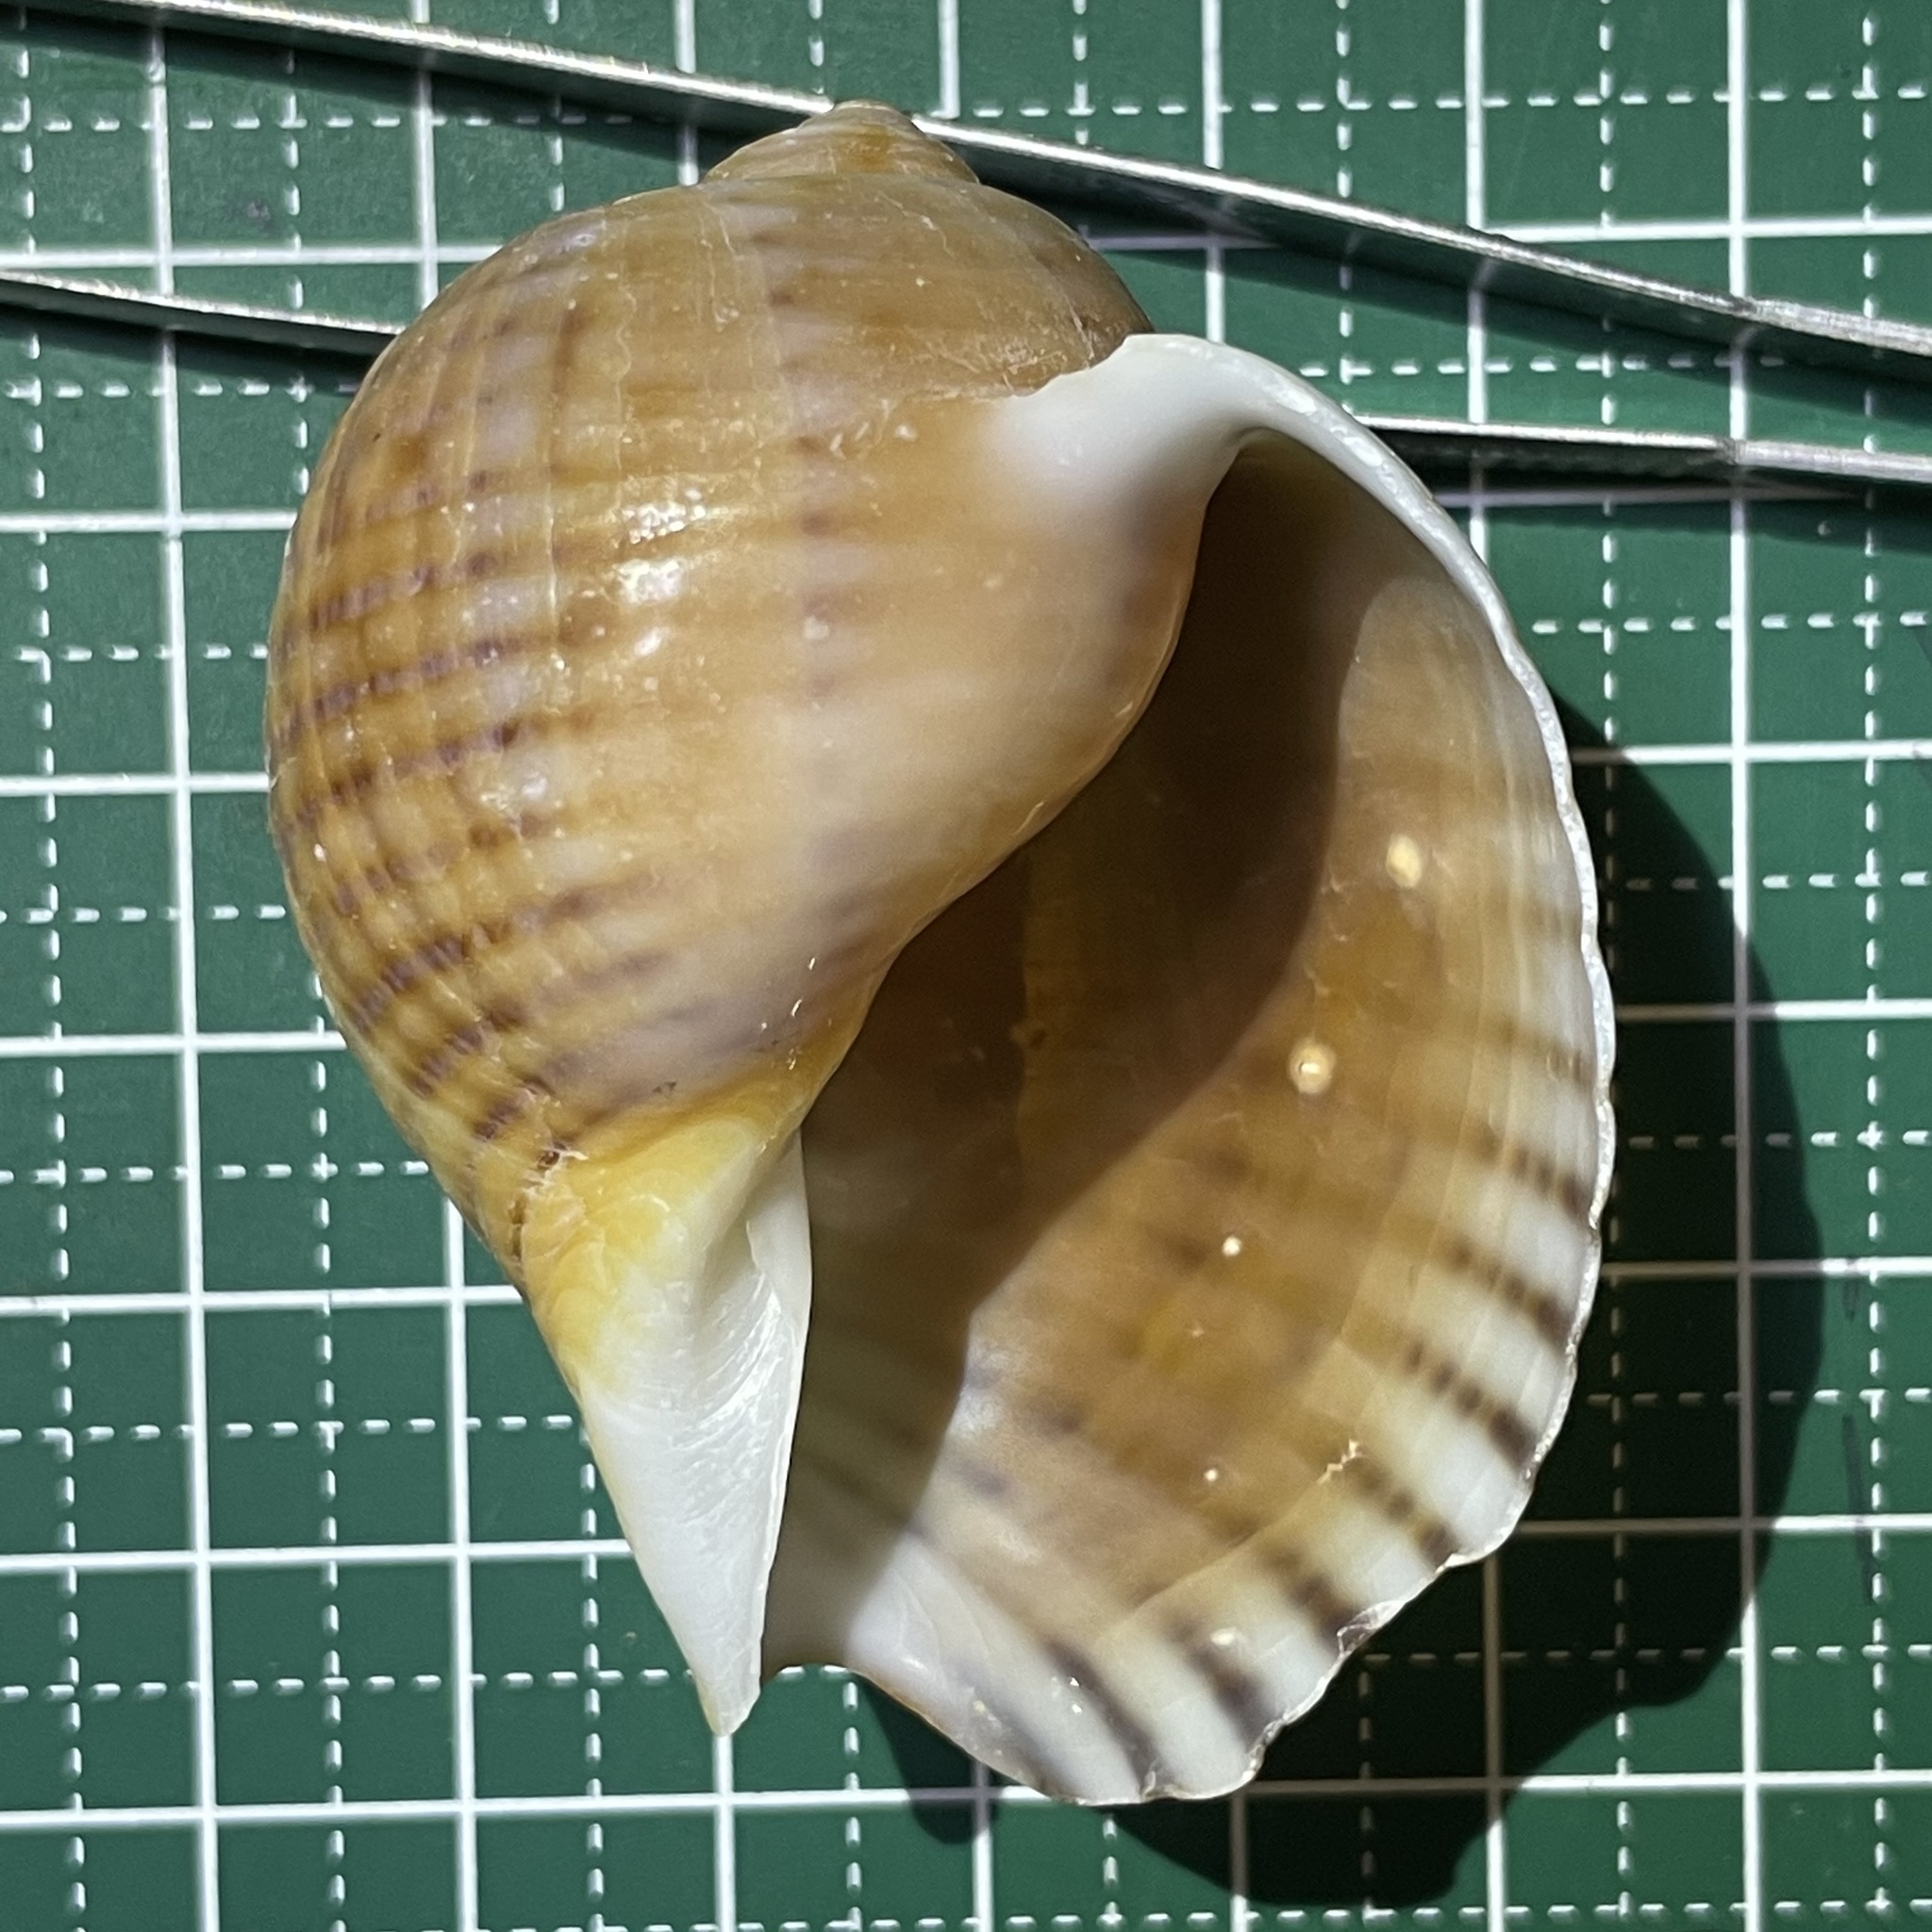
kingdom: Animalia
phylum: Mollusca
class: Gastropoda
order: Littorinimorpha
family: Tonnidae
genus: Tonna
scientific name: Tonna canaliculata
